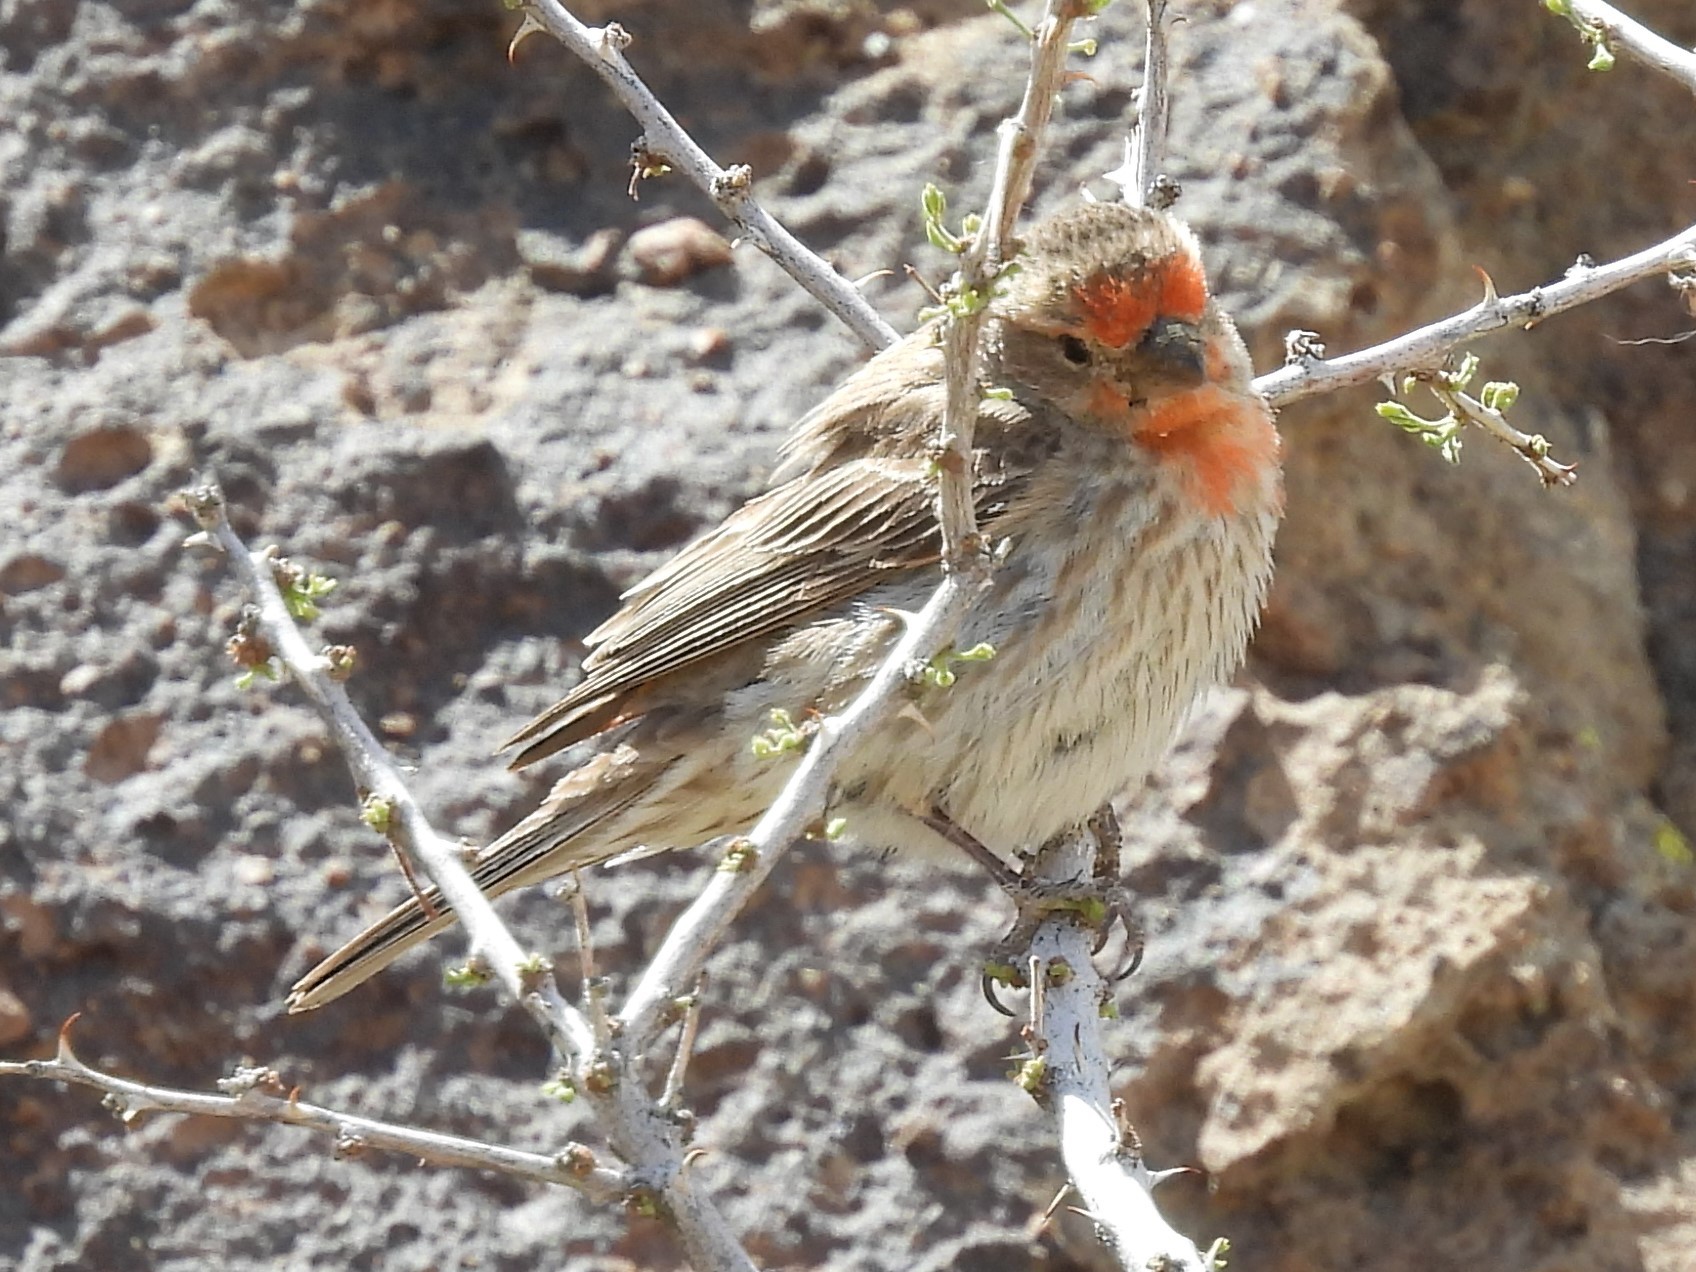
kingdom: Animalia
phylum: Chordata
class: Aves
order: Passeriformes
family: Fringillidae
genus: Haemorhous
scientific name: Haemorhous mexicanus
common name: House finch
